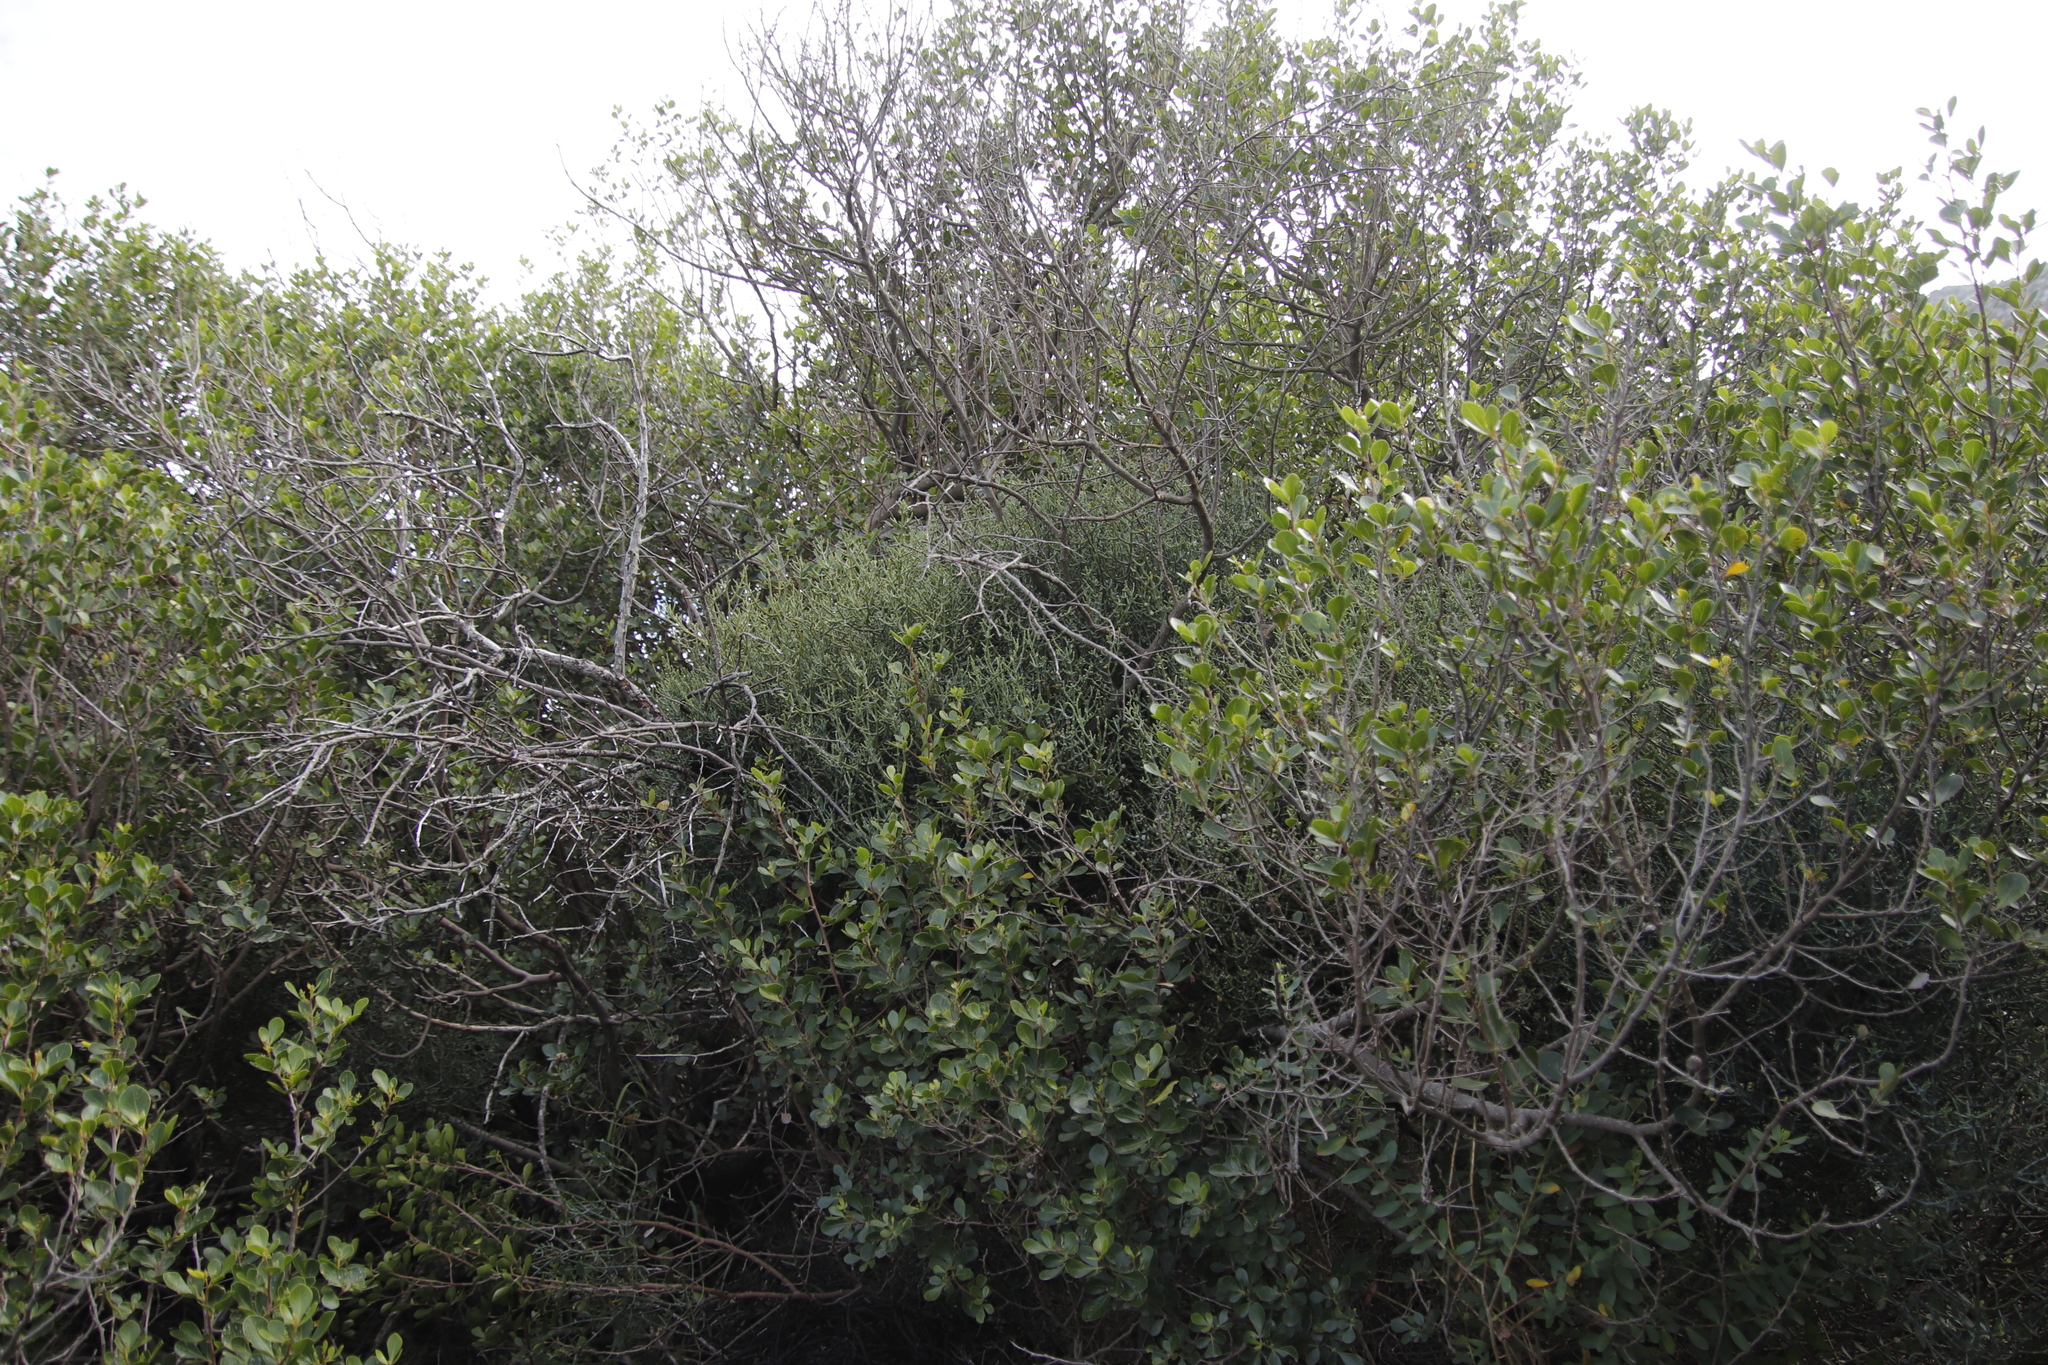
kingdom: Plantae
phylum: Tracheophyta
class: Magnoliopsida
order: Sapindales
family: Anacardiaceae
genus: Searsia
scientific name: Searsia lucida
